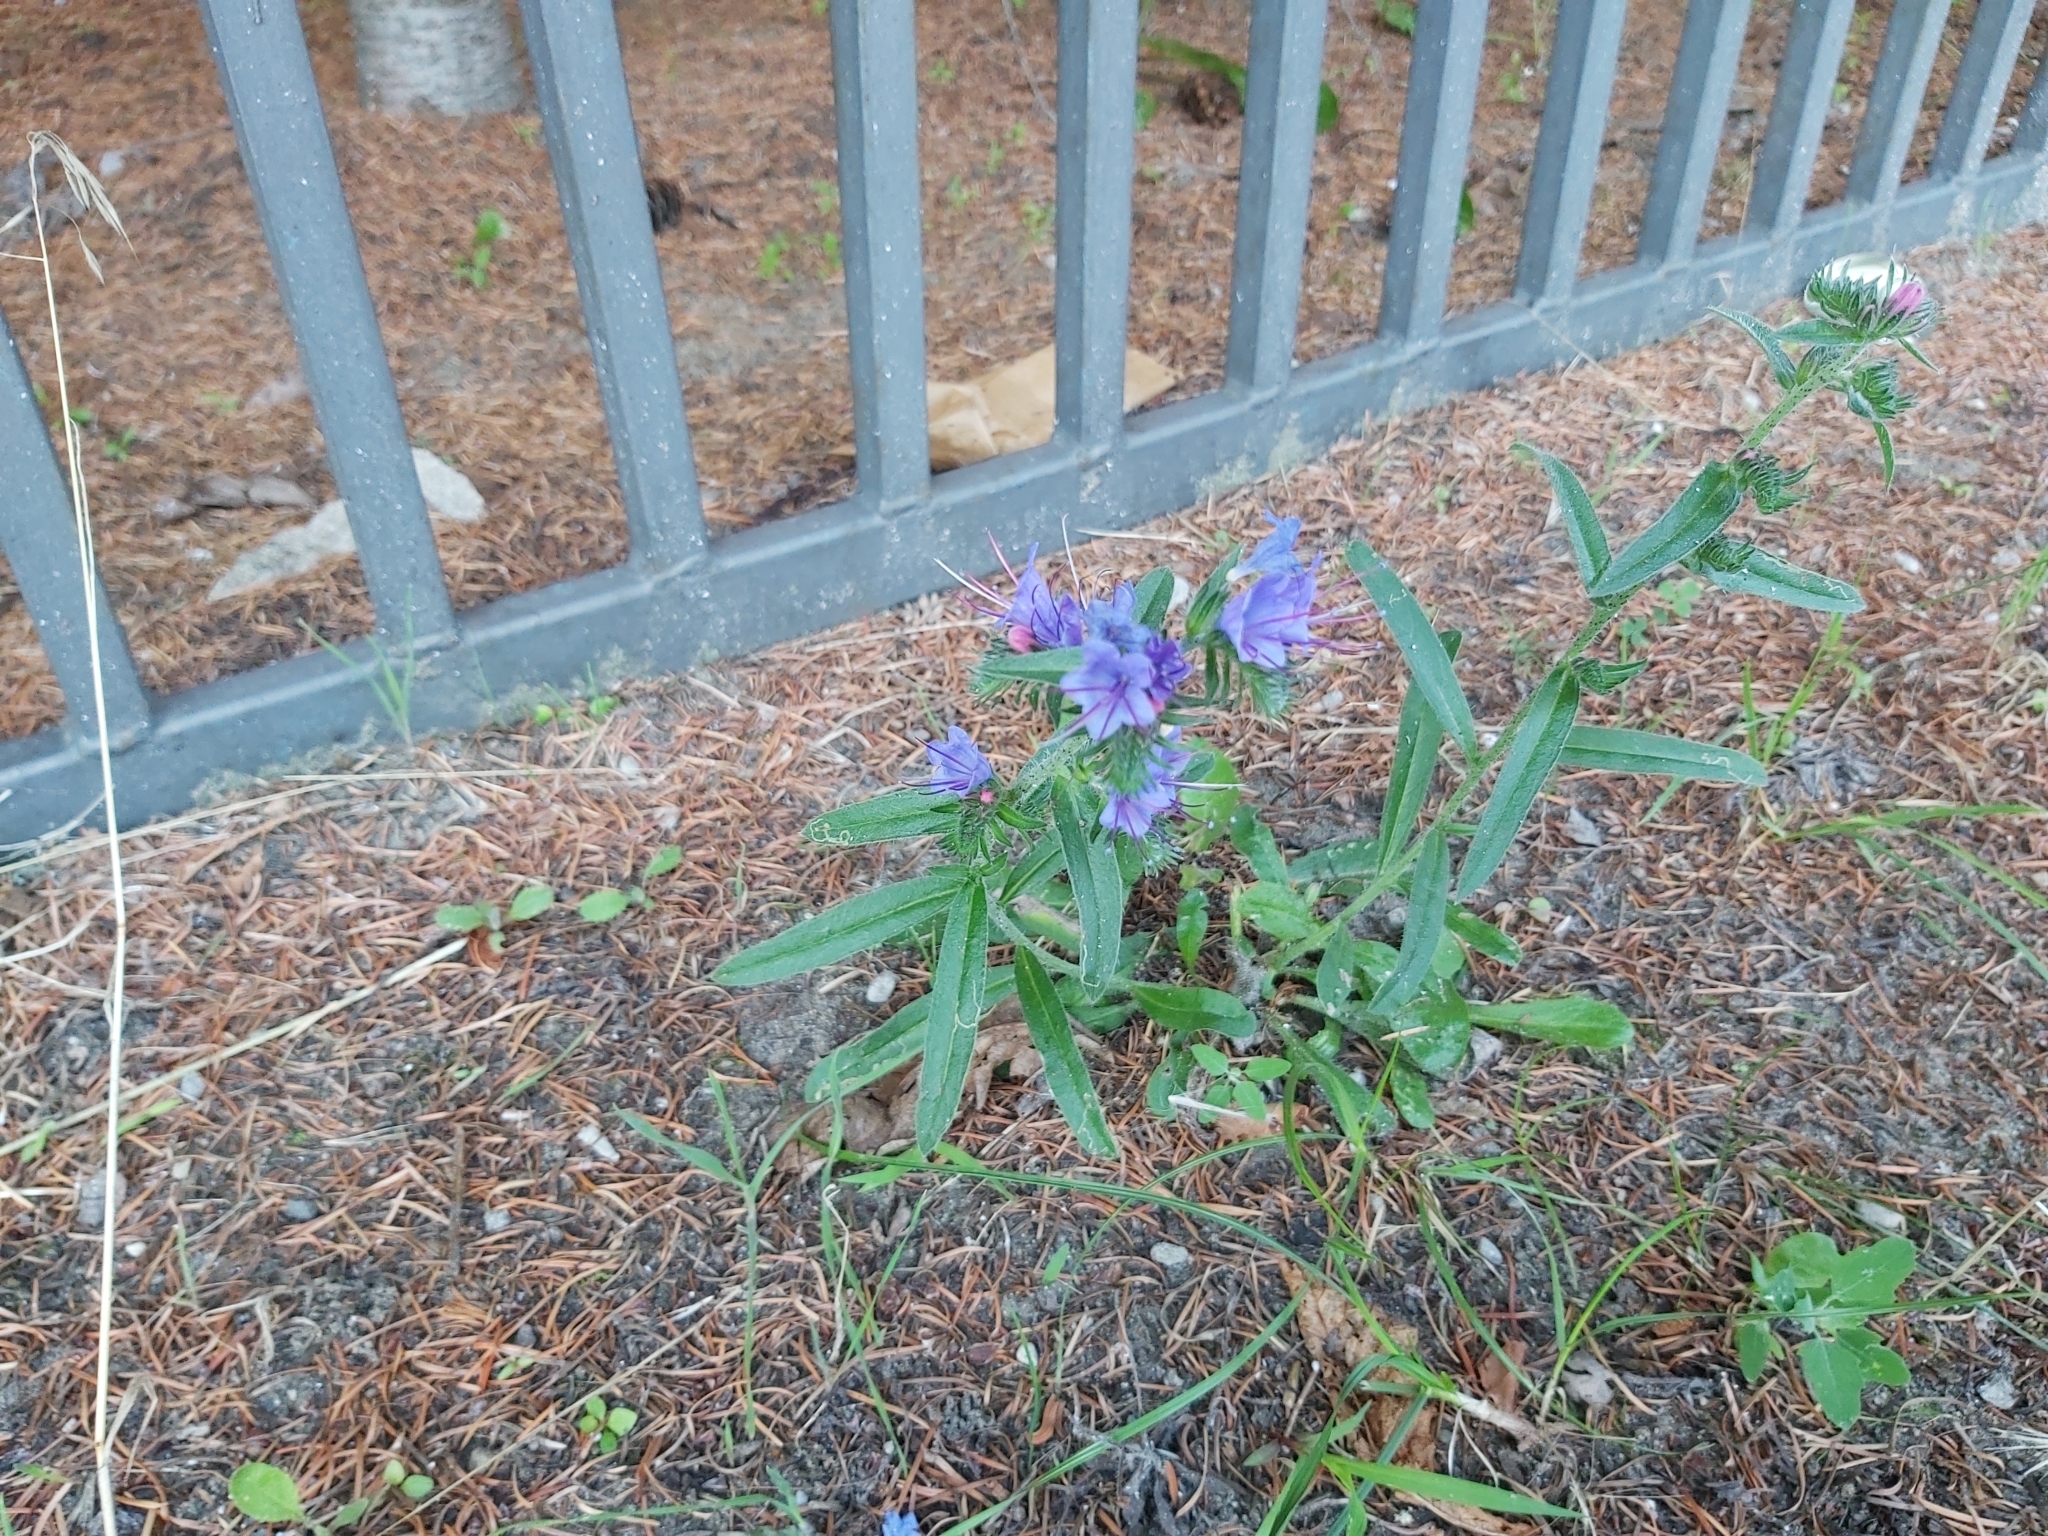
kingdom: Plantae
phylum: Tracheophyta
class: Magnoliopsida
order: Boraginales
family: Boraginaceae
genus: Echium
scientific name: Echium vulgare
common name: Common viper's bugloss
